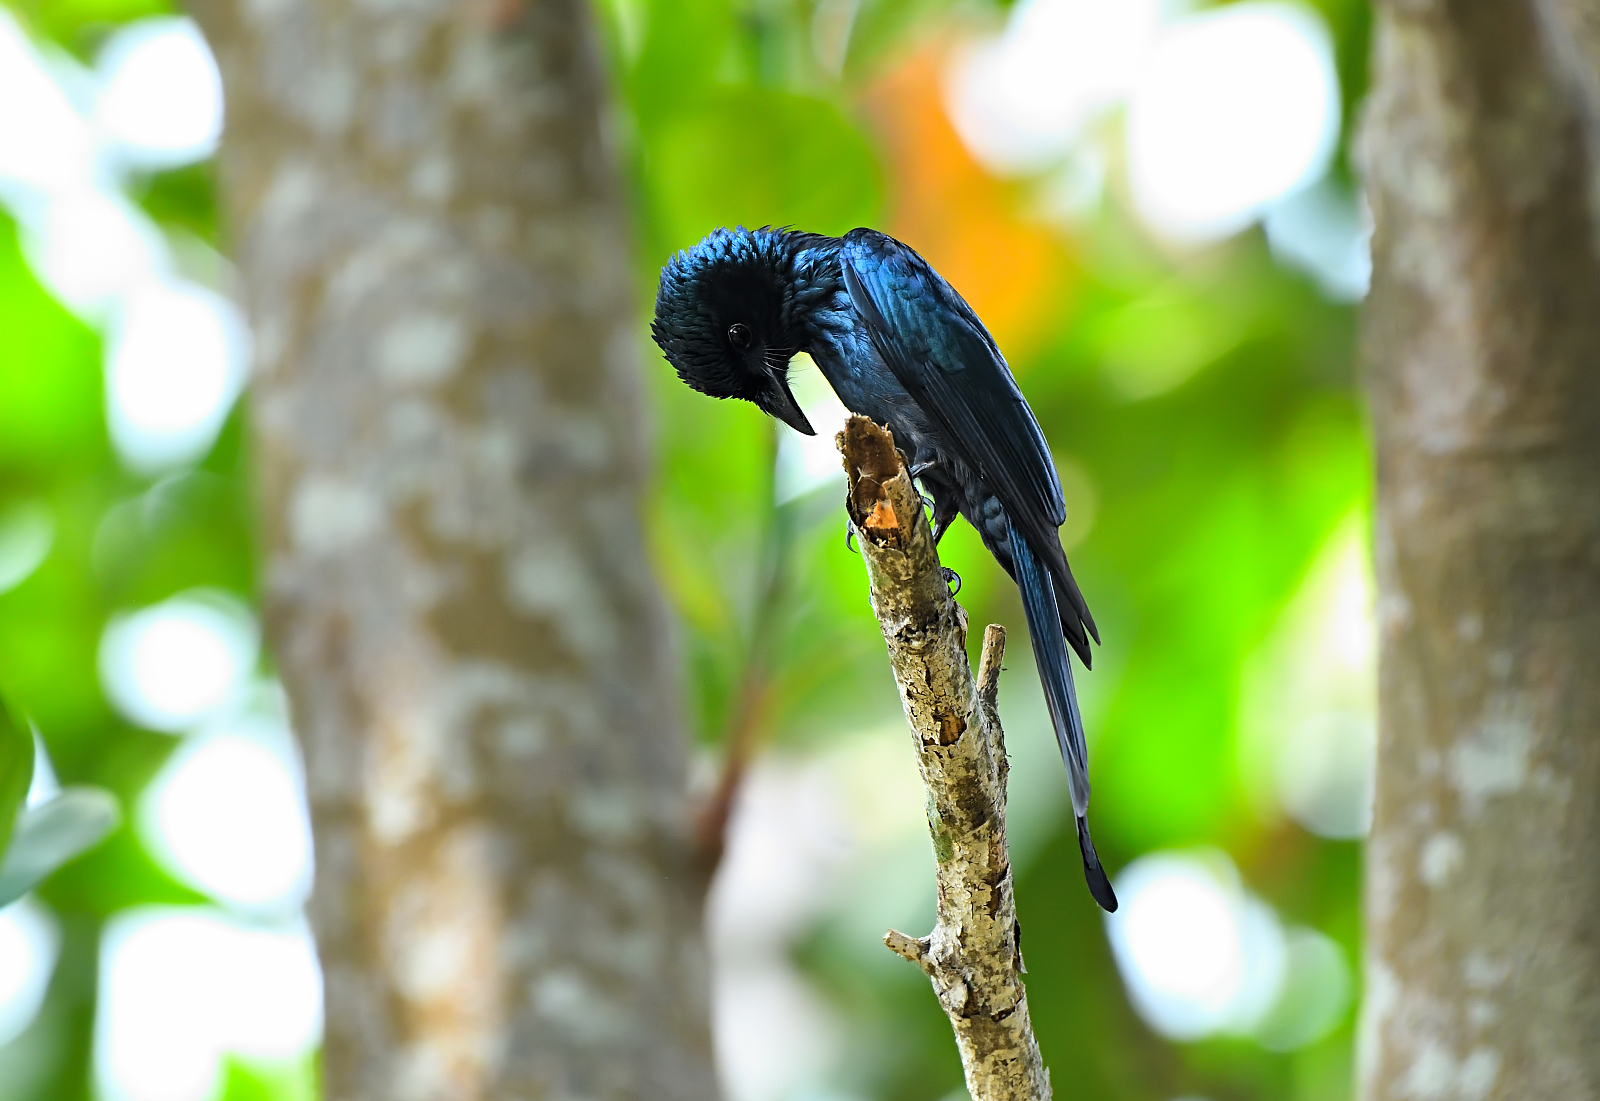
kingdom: Animalia
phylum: Chordata
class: Aves
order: Passeriformes
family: Dicruridae
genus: Dicrurus
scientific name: Dicrurus aeneus
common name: Bronzed drongo
